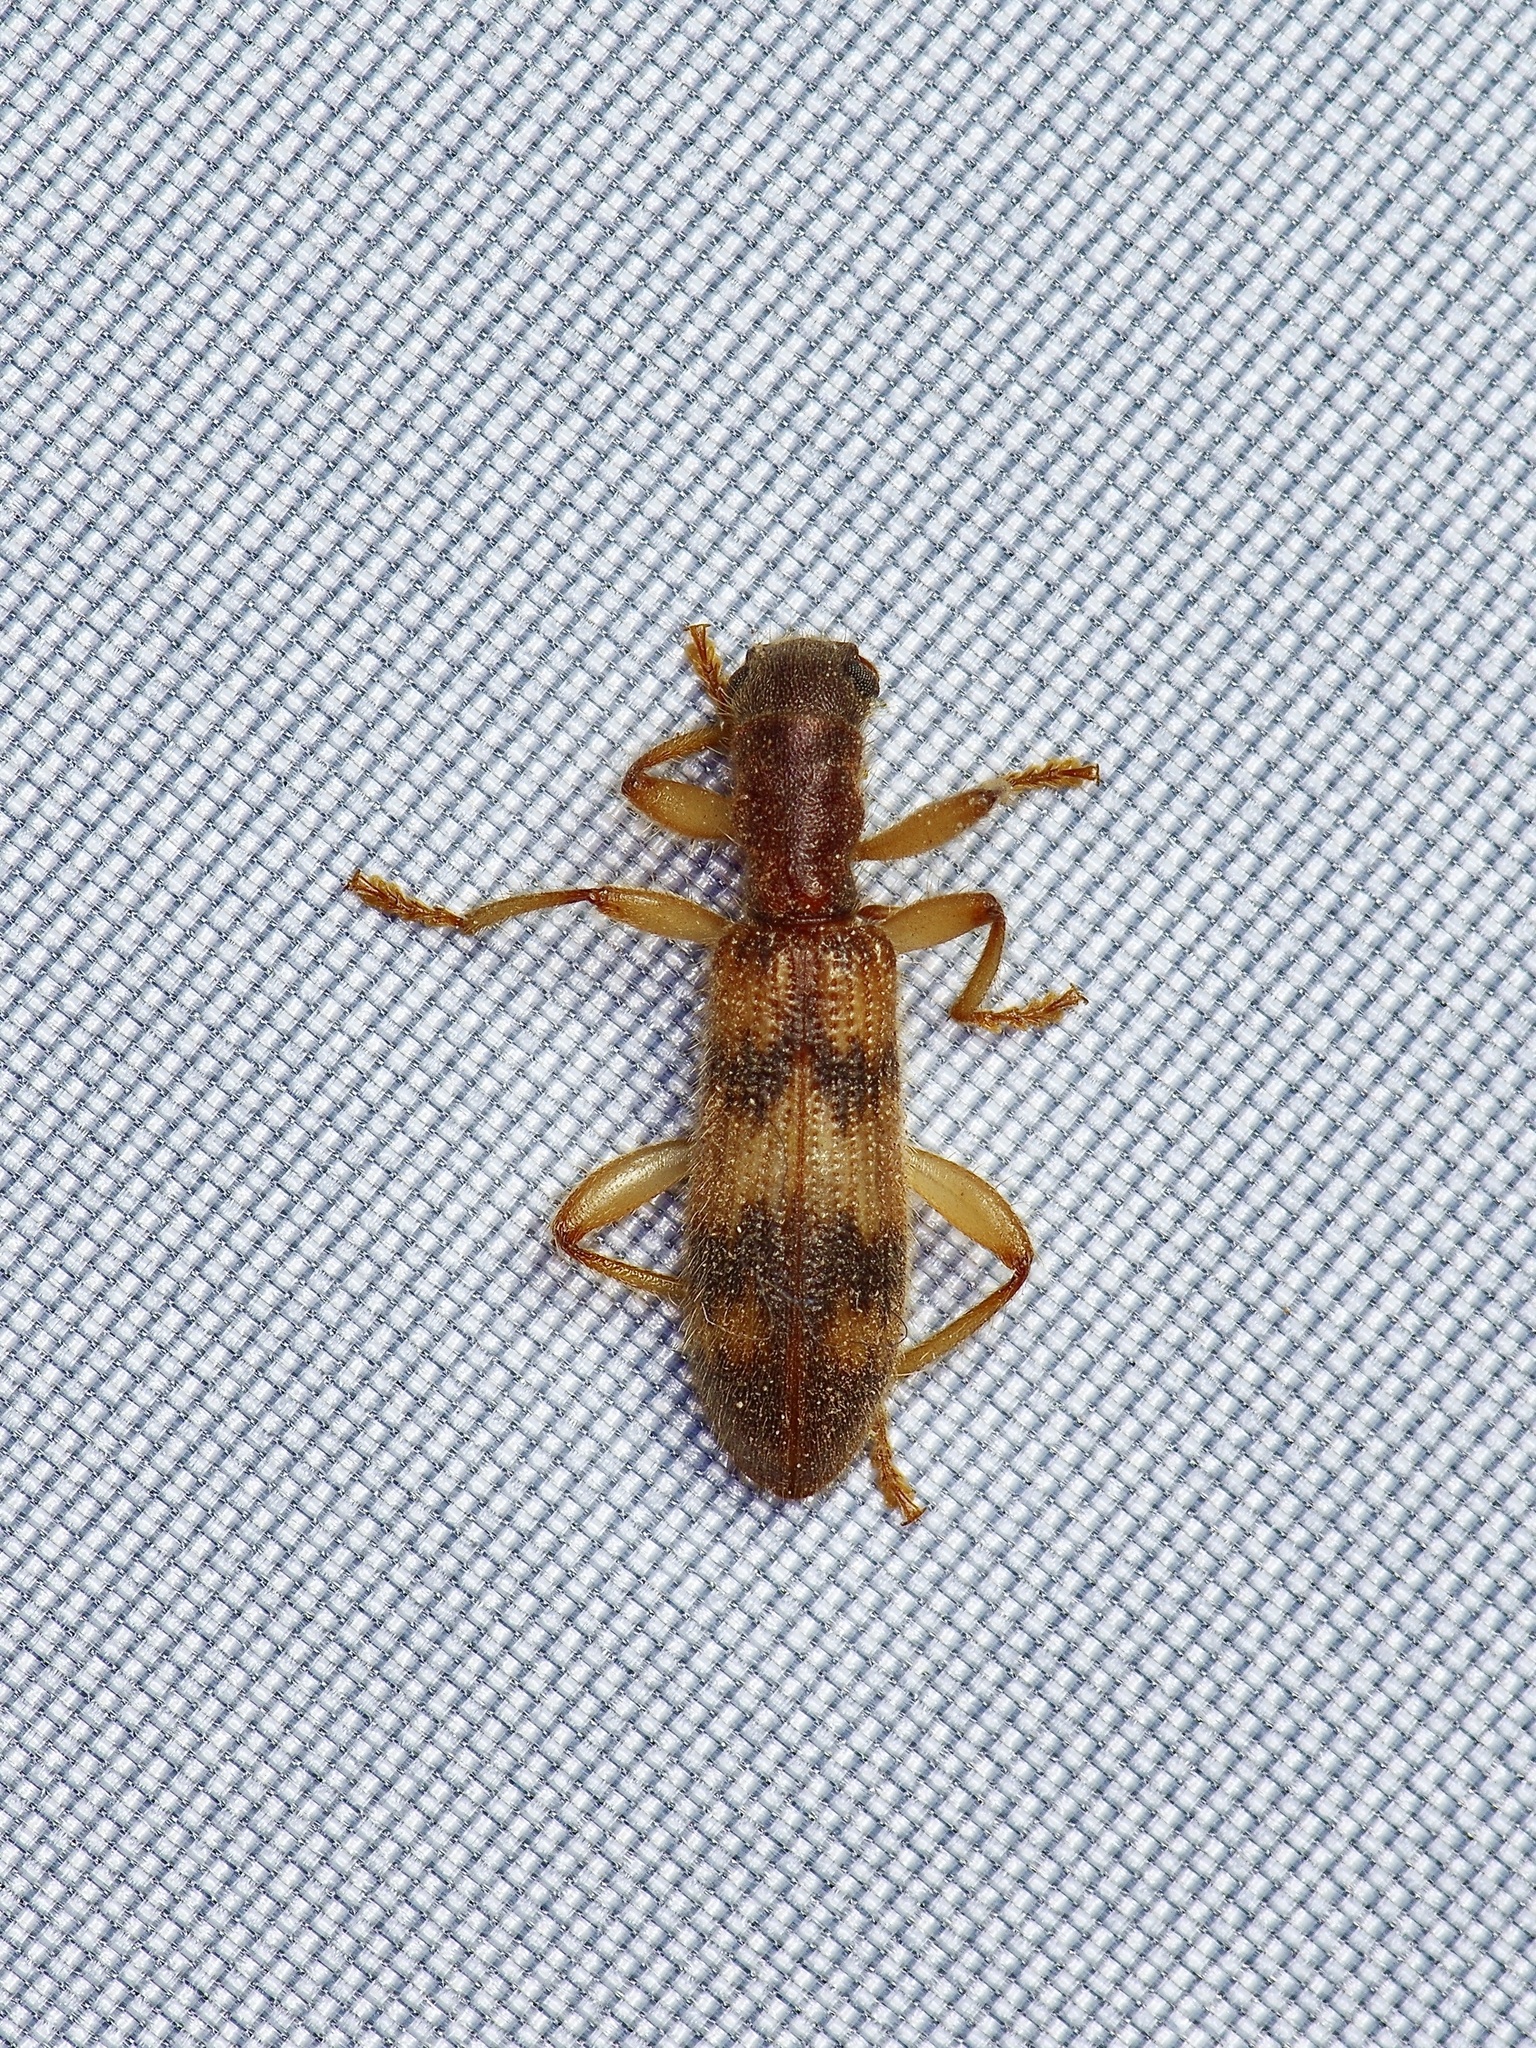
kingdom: Animalia
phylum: Arthropoda
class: Insecta
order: Coleoptera
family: Cleridae
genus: Cymatodera
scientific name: Cymatodera undulata
